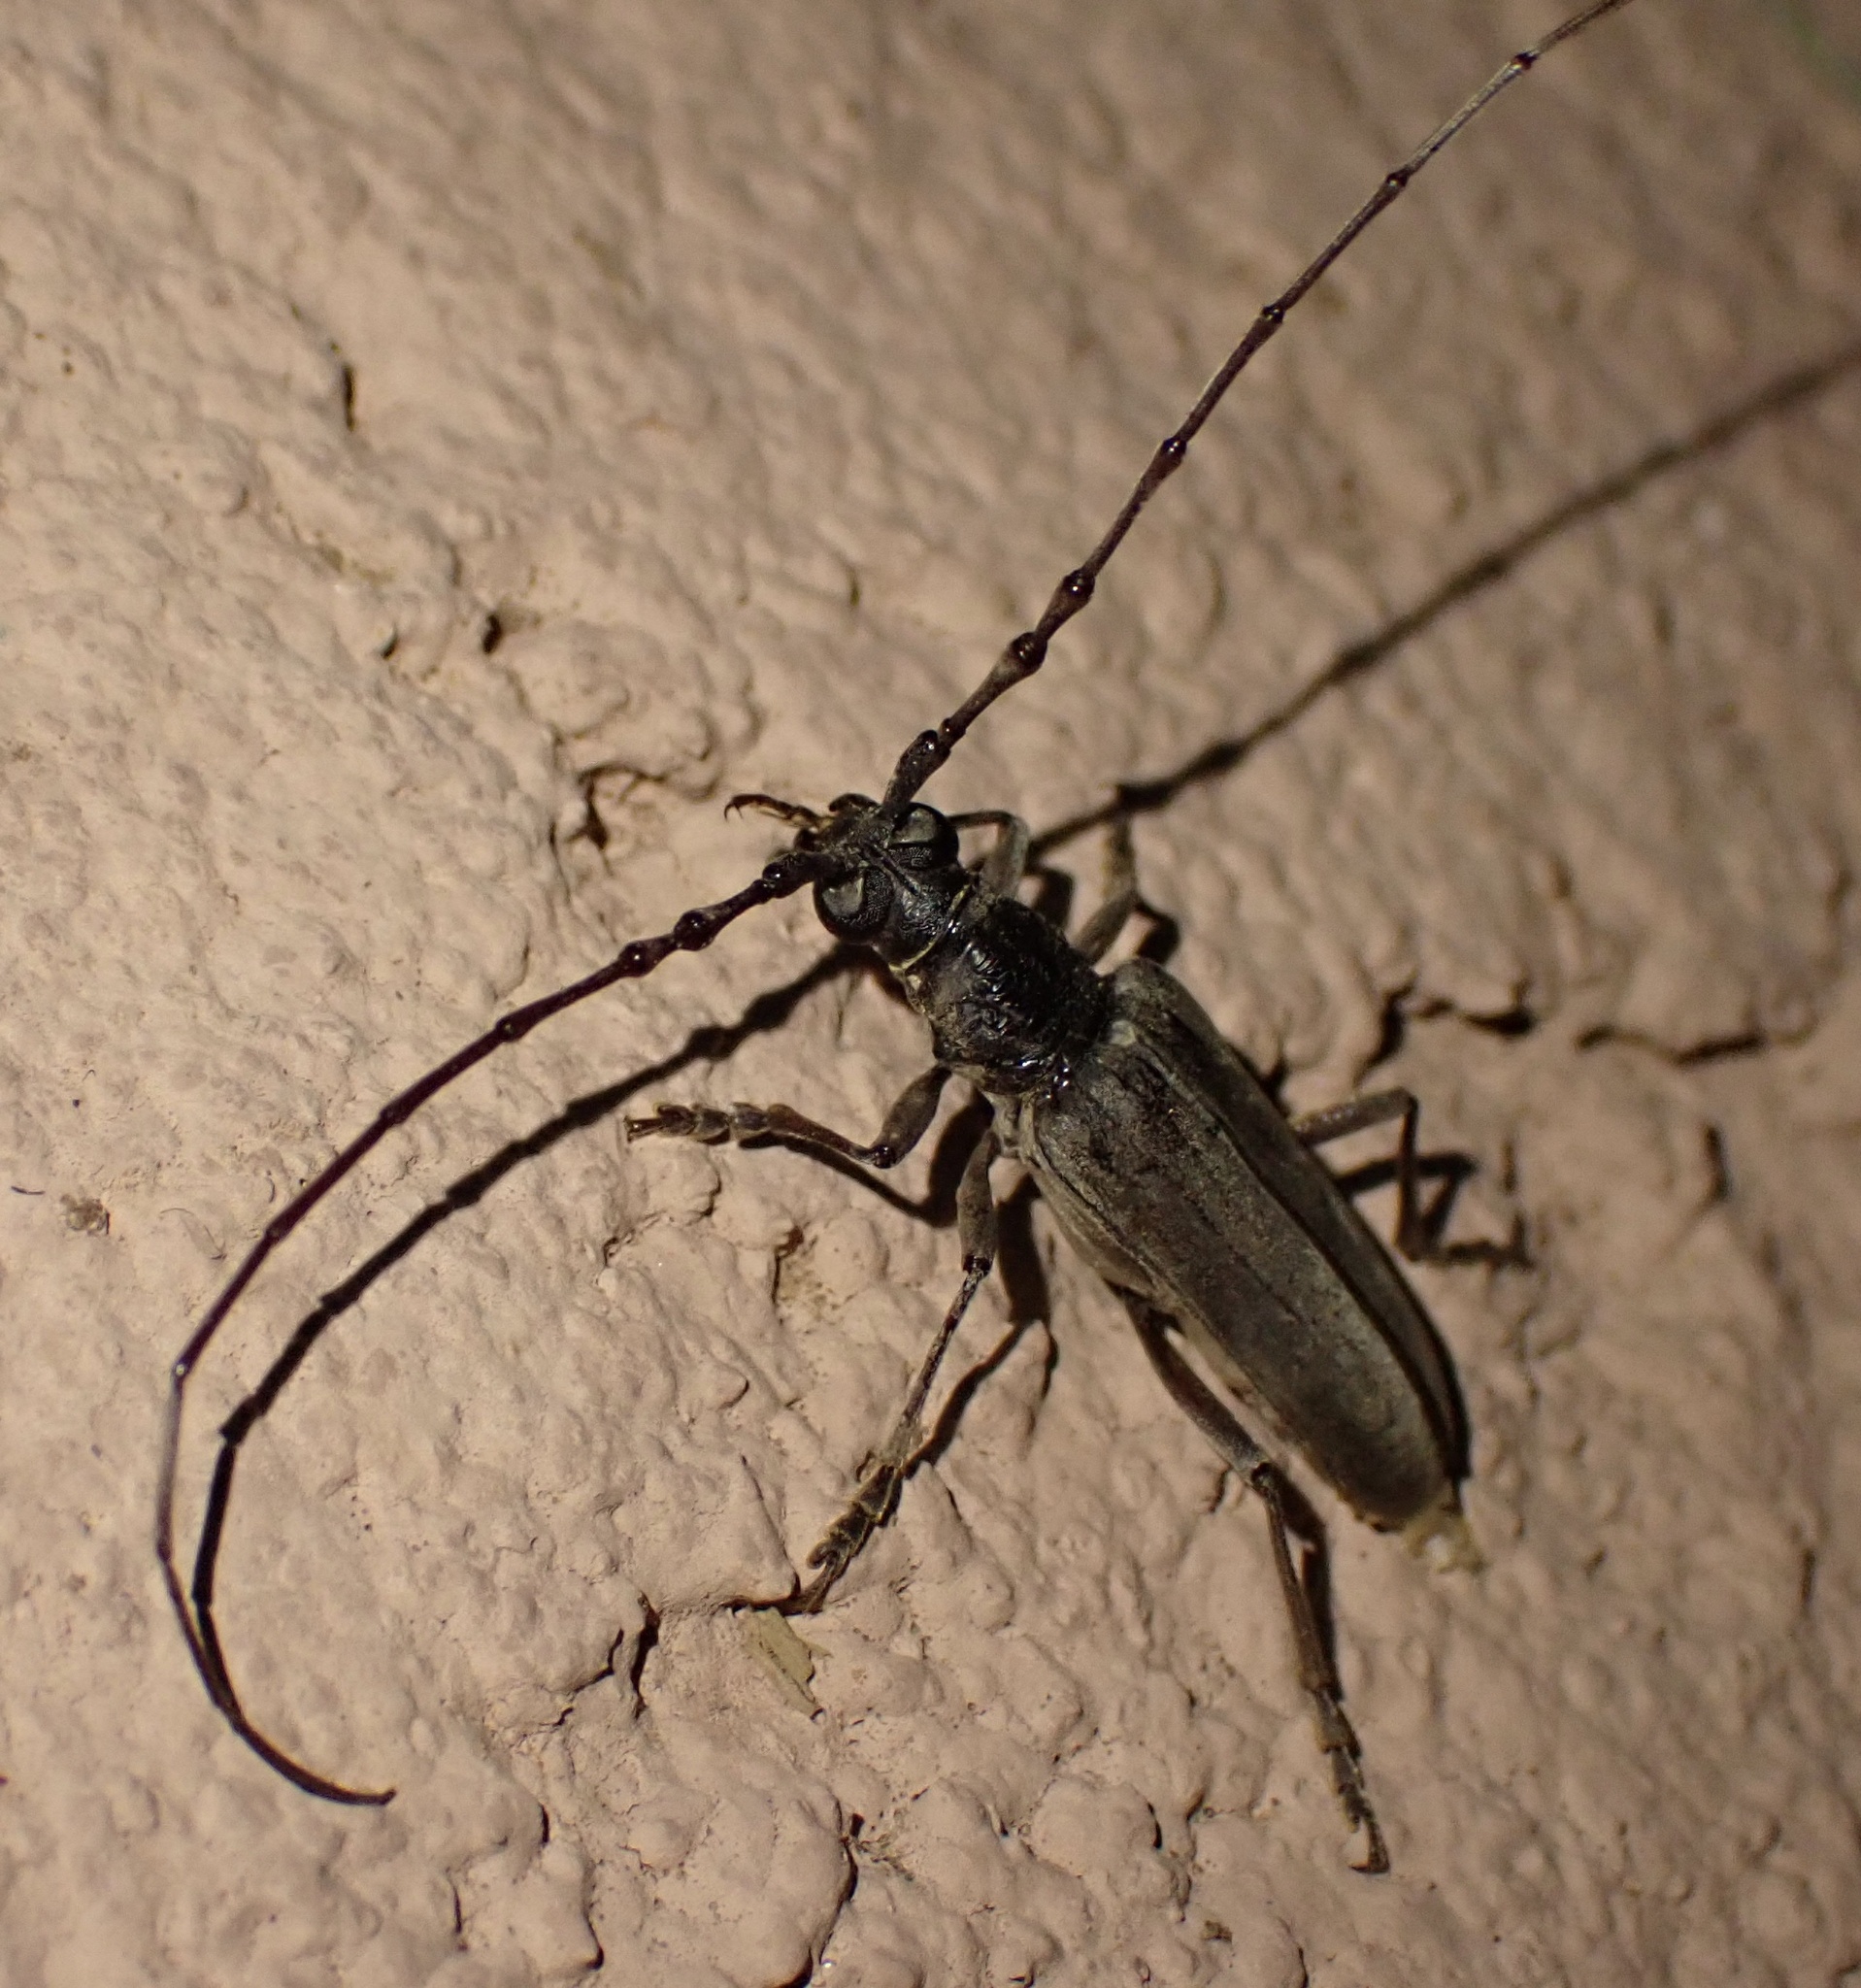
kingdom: Animalia
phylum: Arthropoda
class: Insecta
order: Coleoptera
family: Cerambycidae
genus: Derolus
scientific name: Derolus mauritanicus
